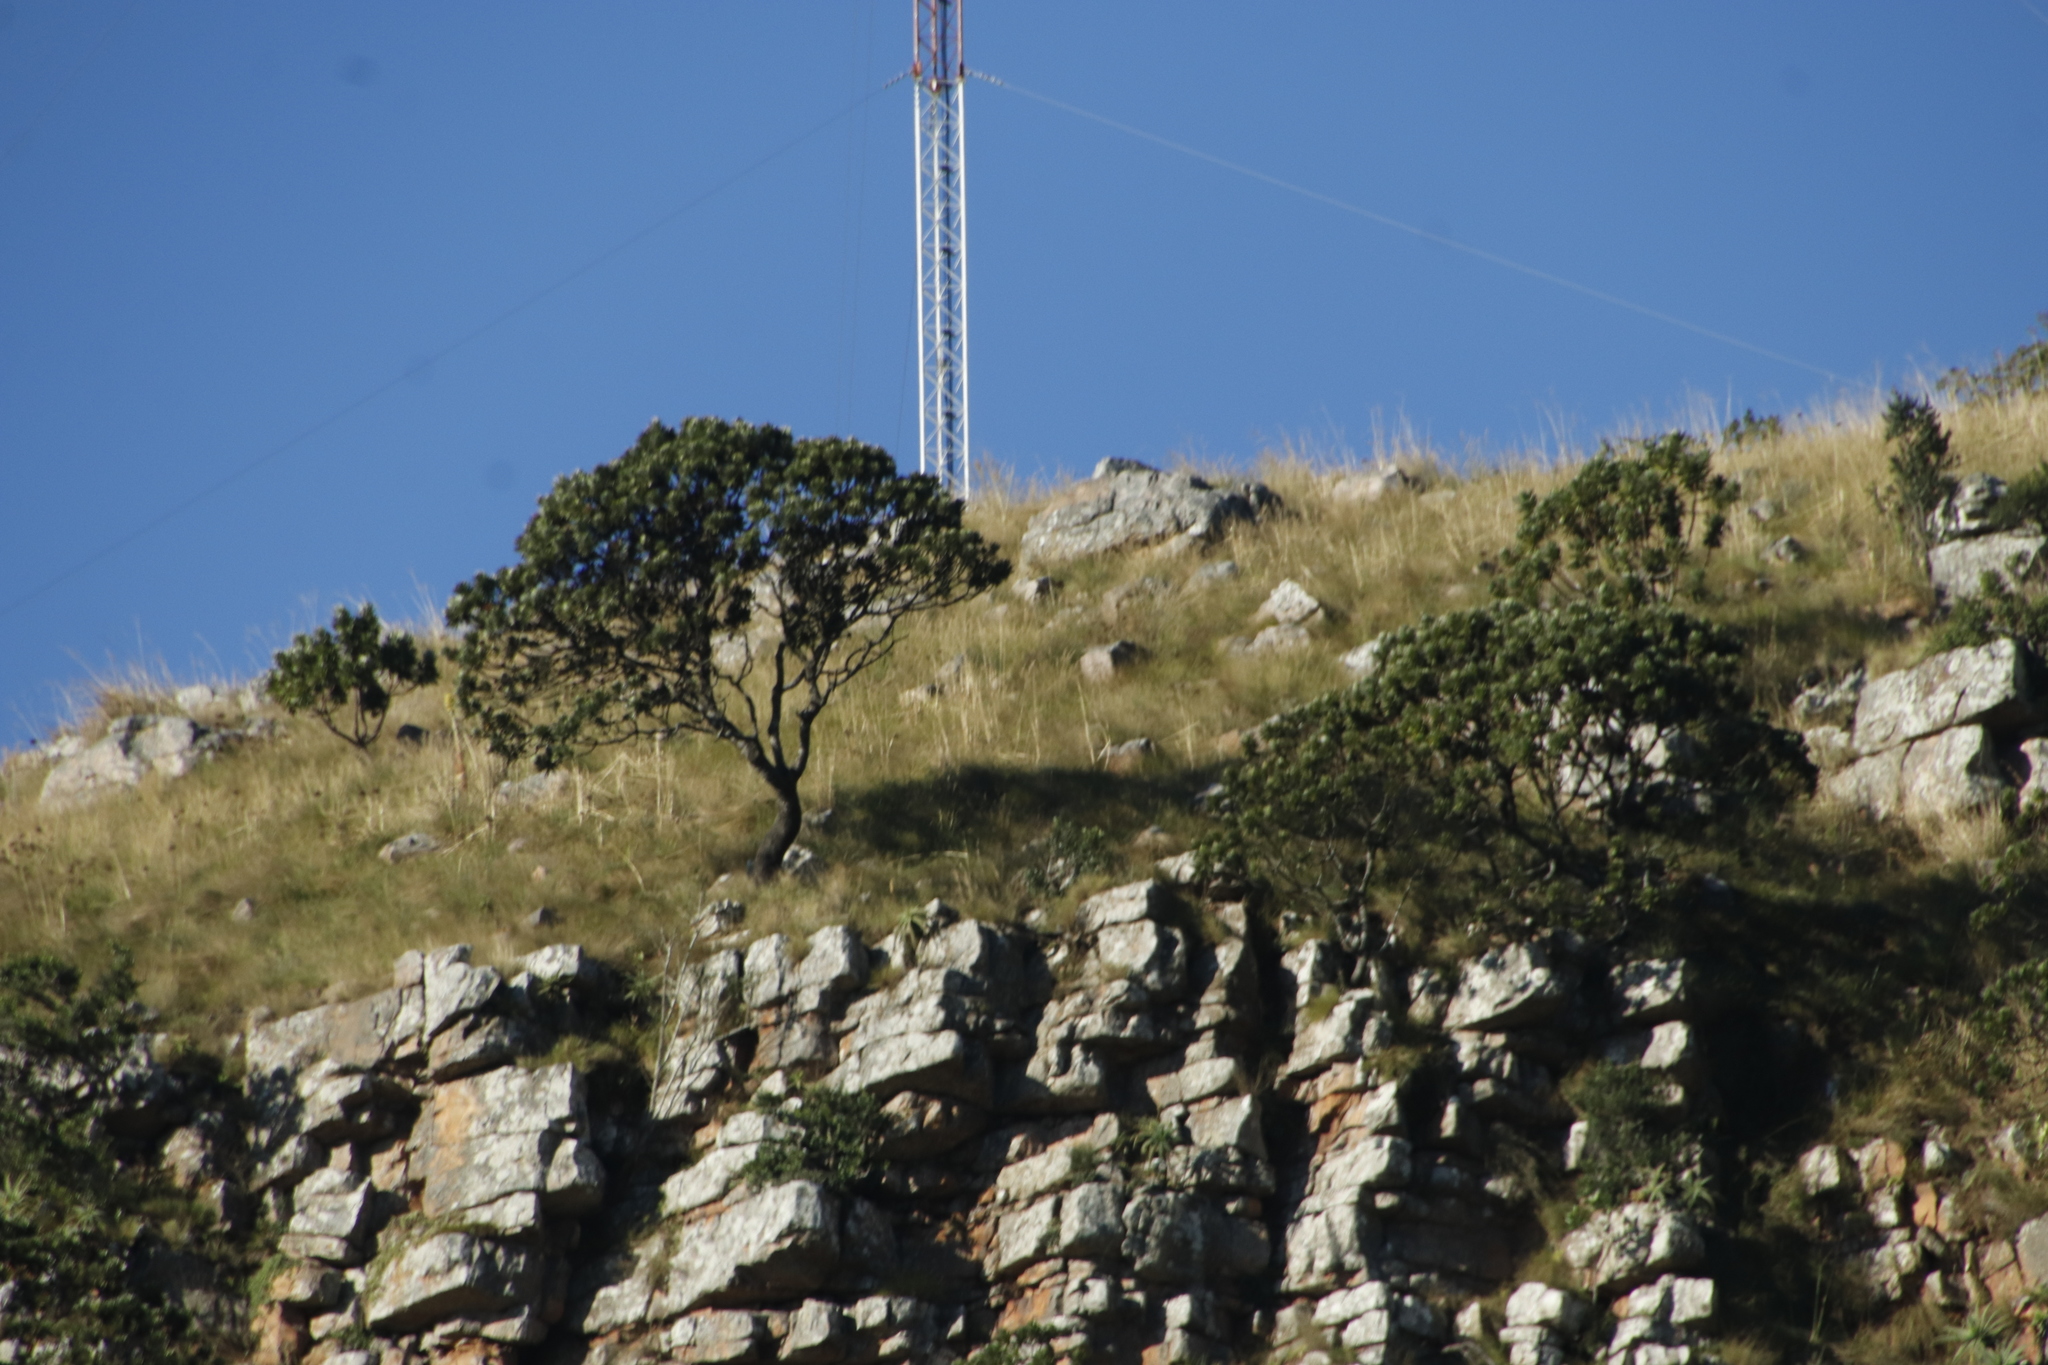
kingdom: Plantae
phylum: Tracheophyta
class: Magnoliopsida
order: Proteales
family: Proteaceae
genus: Protea
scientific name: Protea roupelliae
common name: Silver sugarbush
